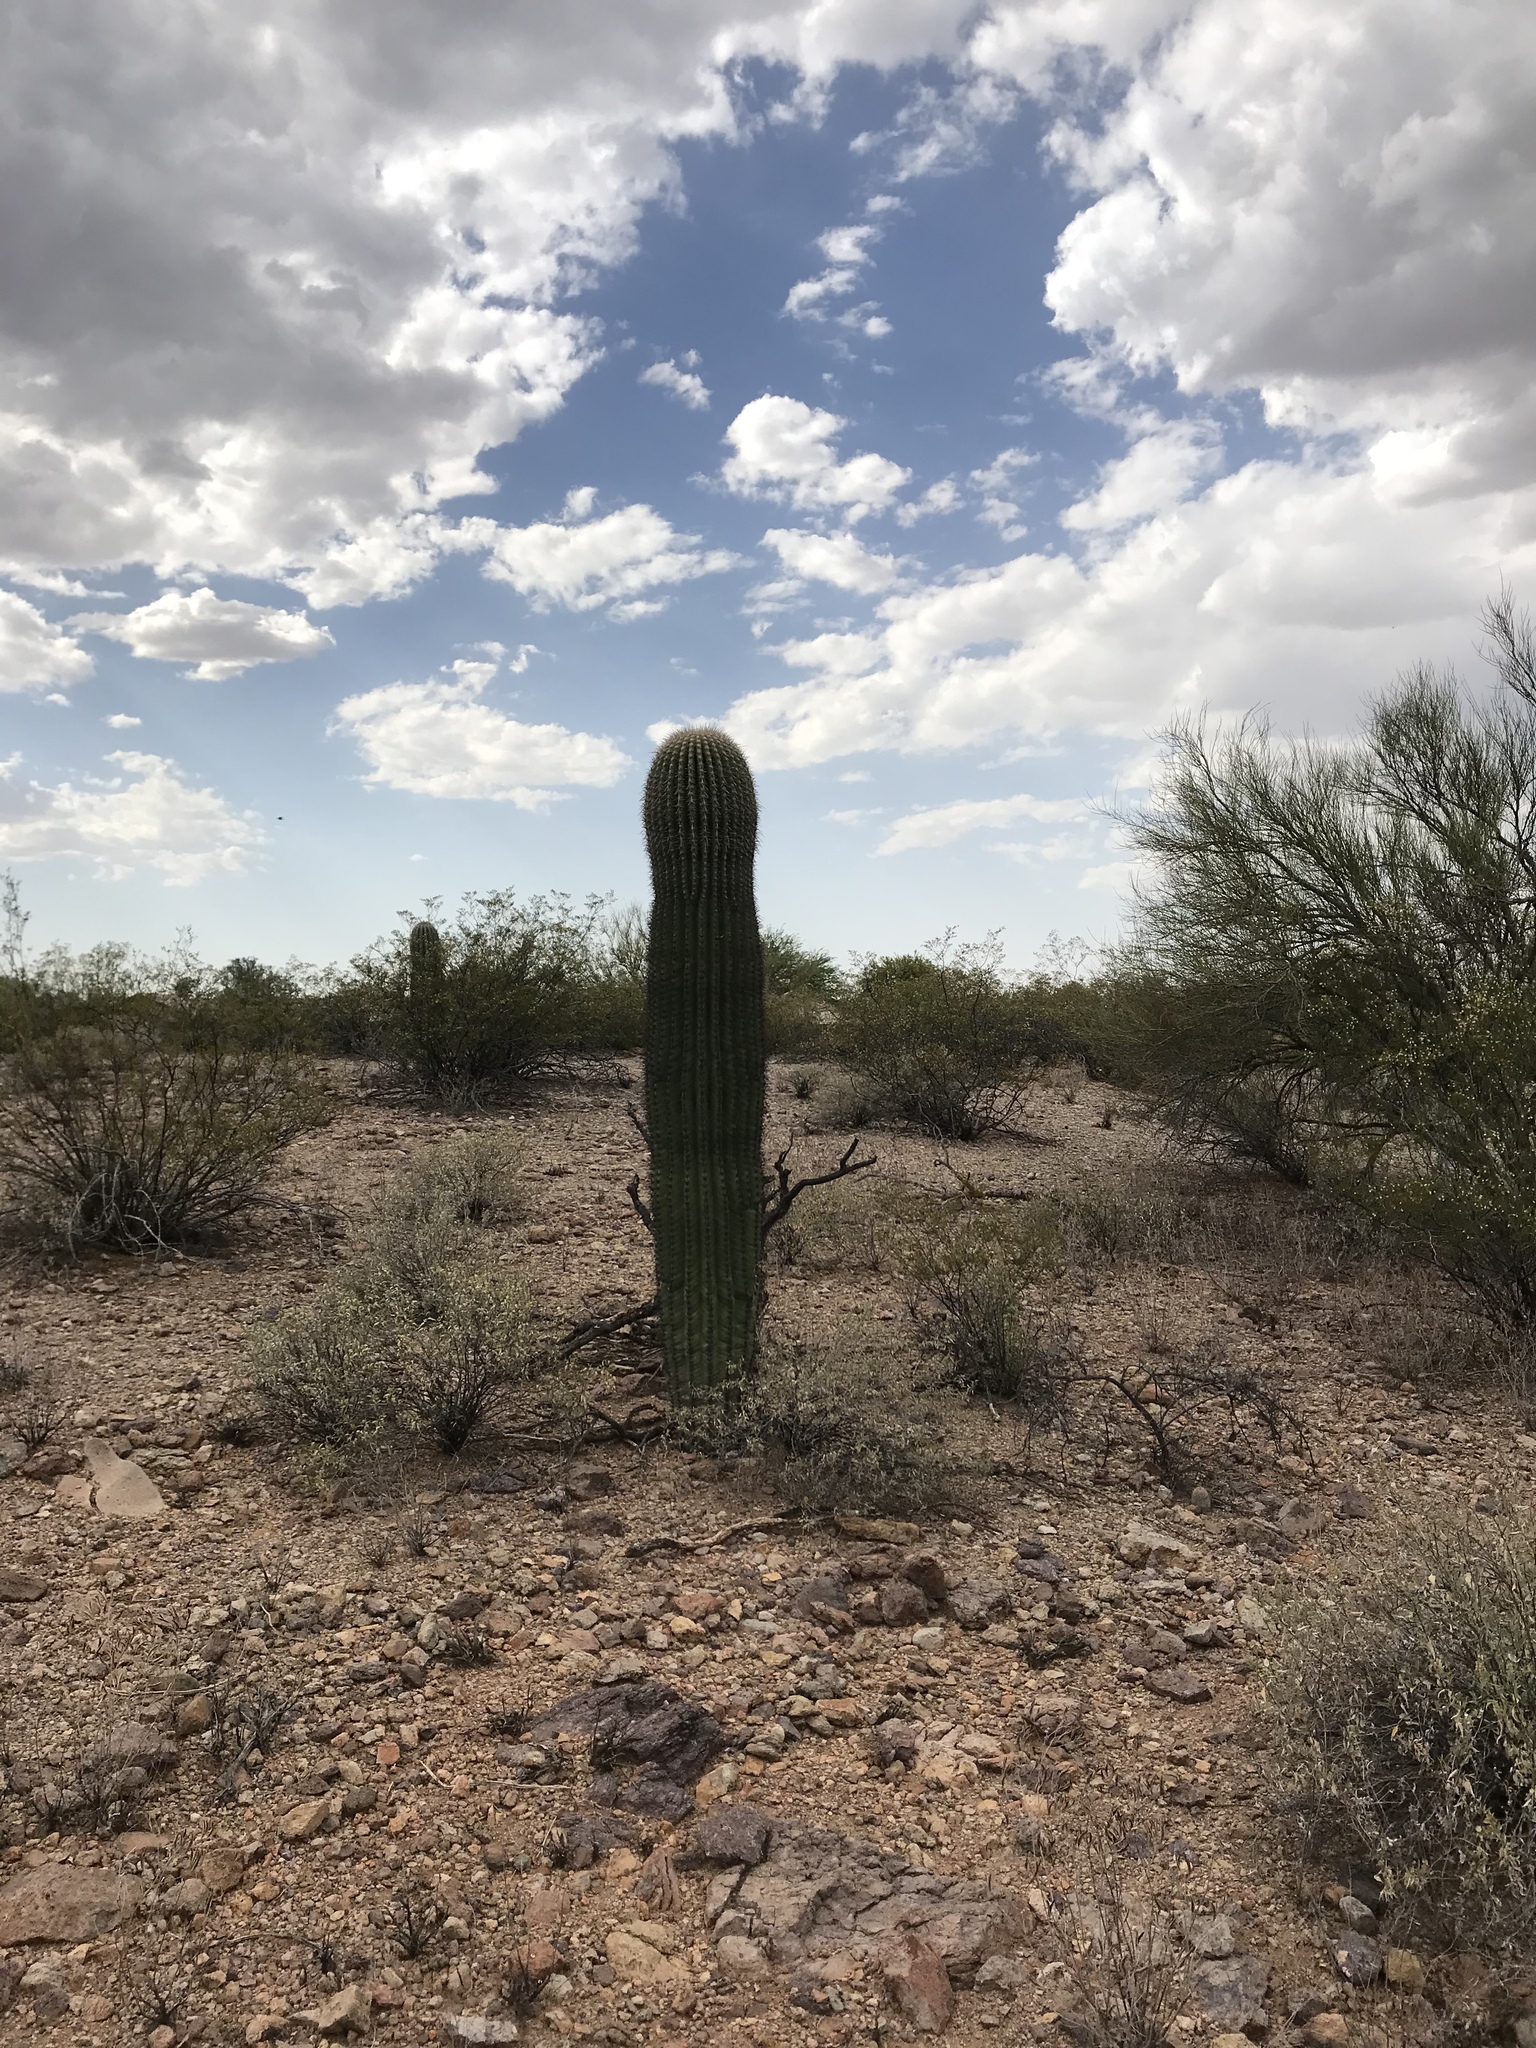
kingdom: Plantae
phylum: Tracheophyta
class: Magnoliopsida
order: Caryophyllales
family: Cactaceae
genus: Carnegiea
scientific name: Carnegiea gigantea
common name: Saguaro
